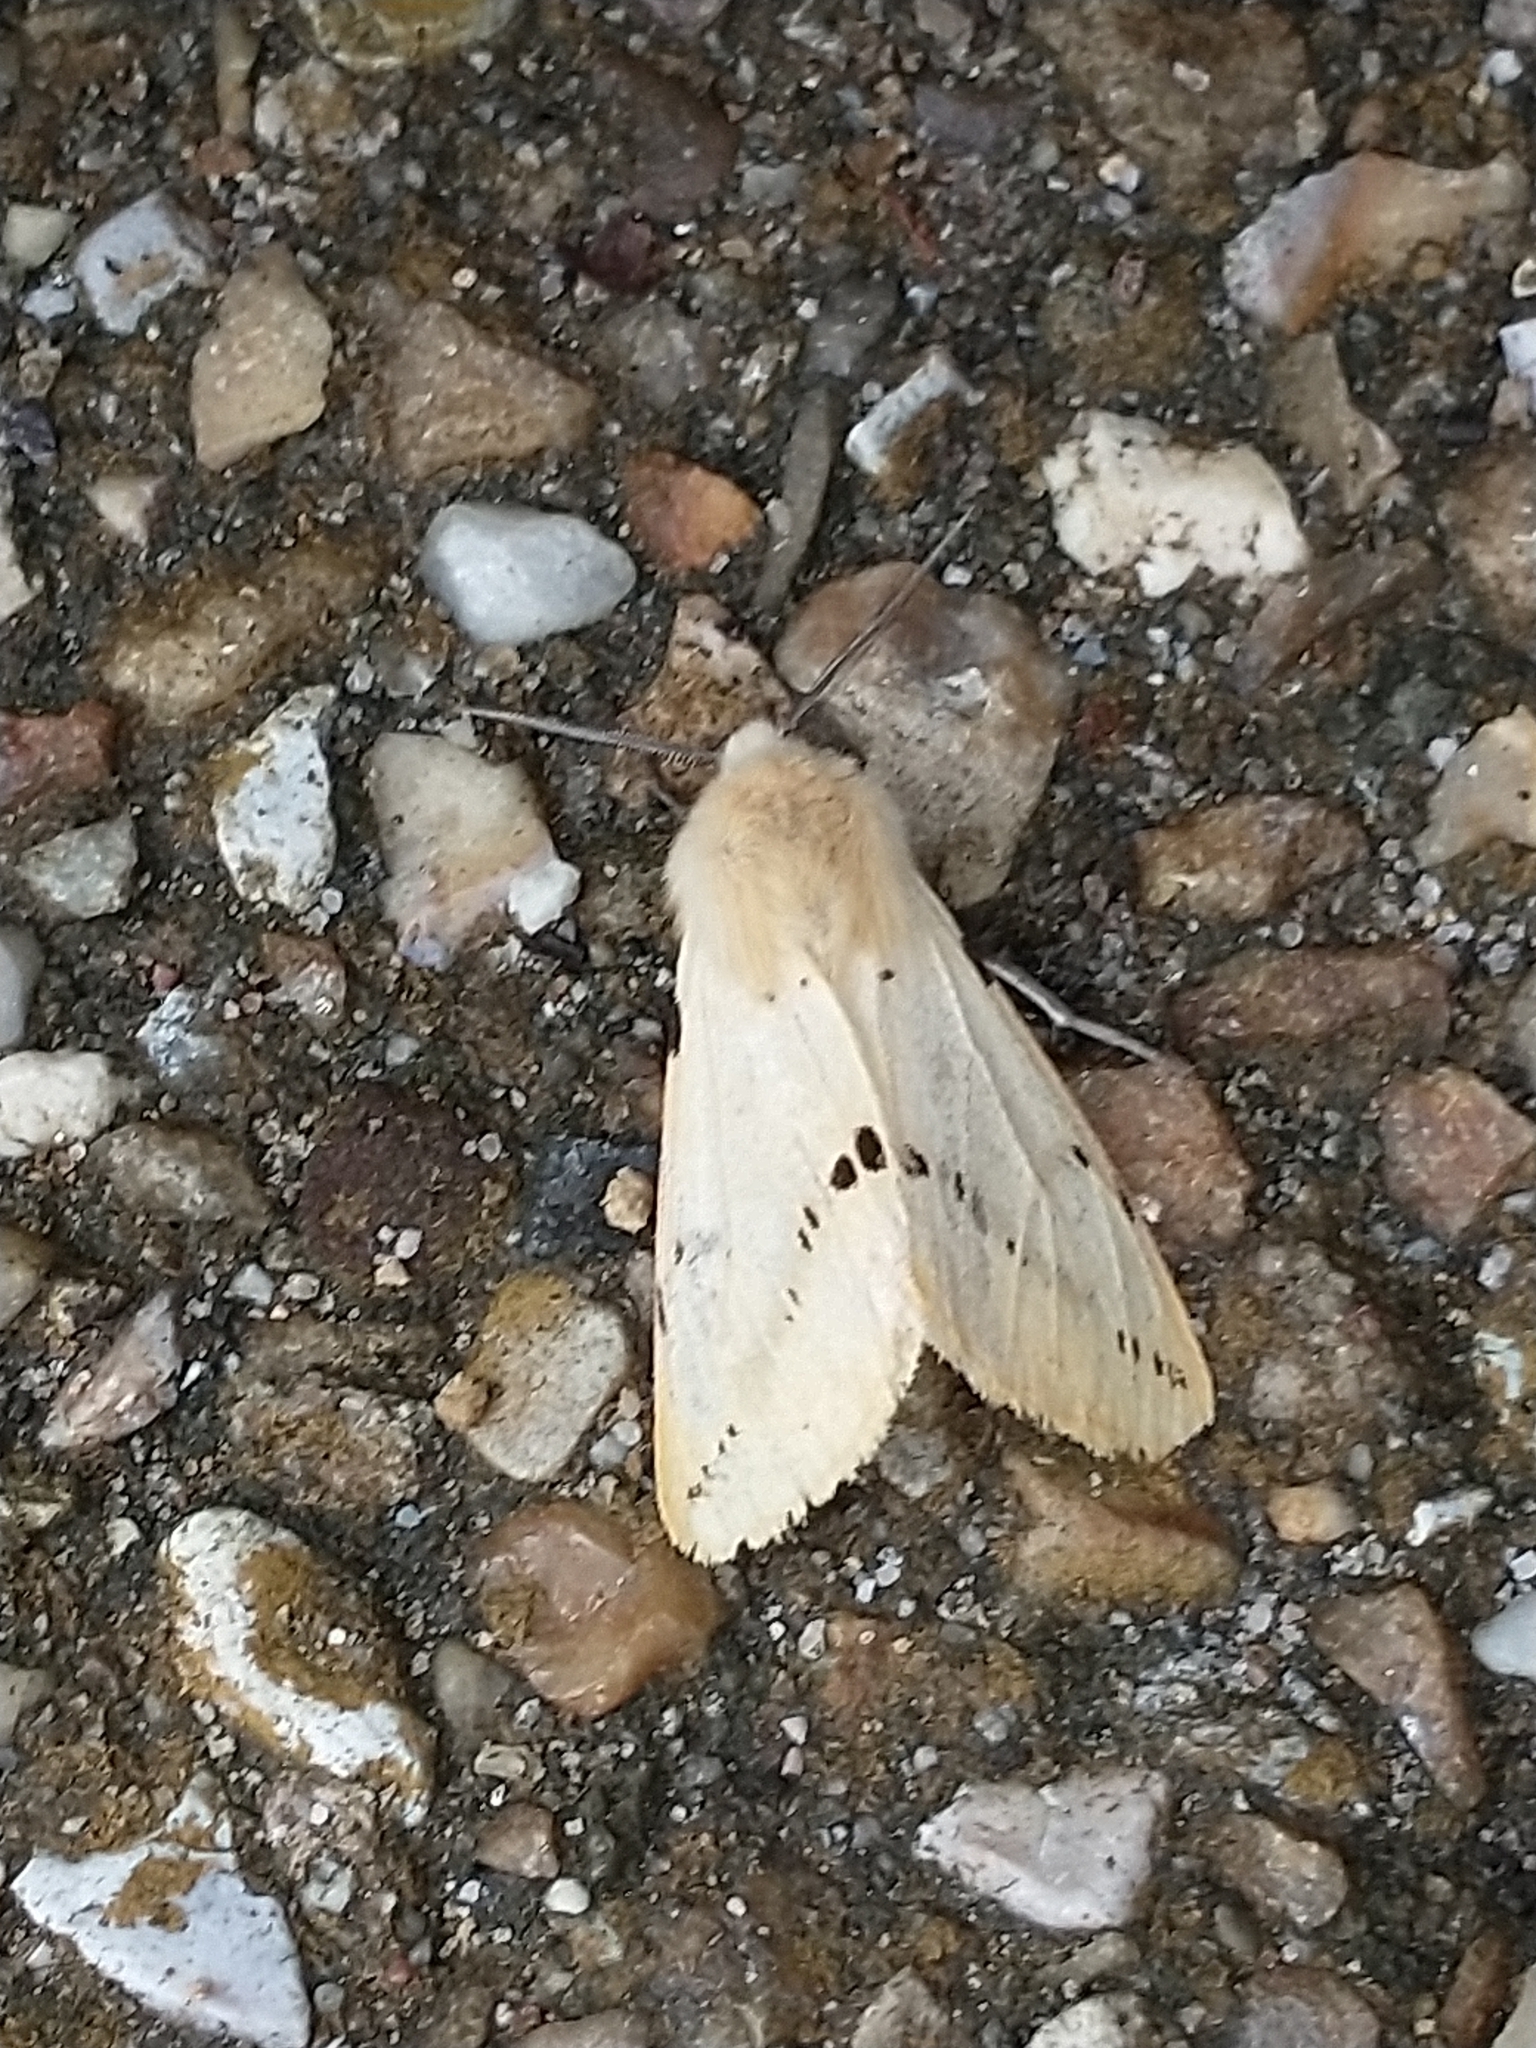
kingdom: Animalia
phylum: Arthropoda
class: Insecta
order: Lepidoptera
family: Erebidae
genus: Spilarctia
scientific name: Spilarctia lutea
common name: Buff ermine
